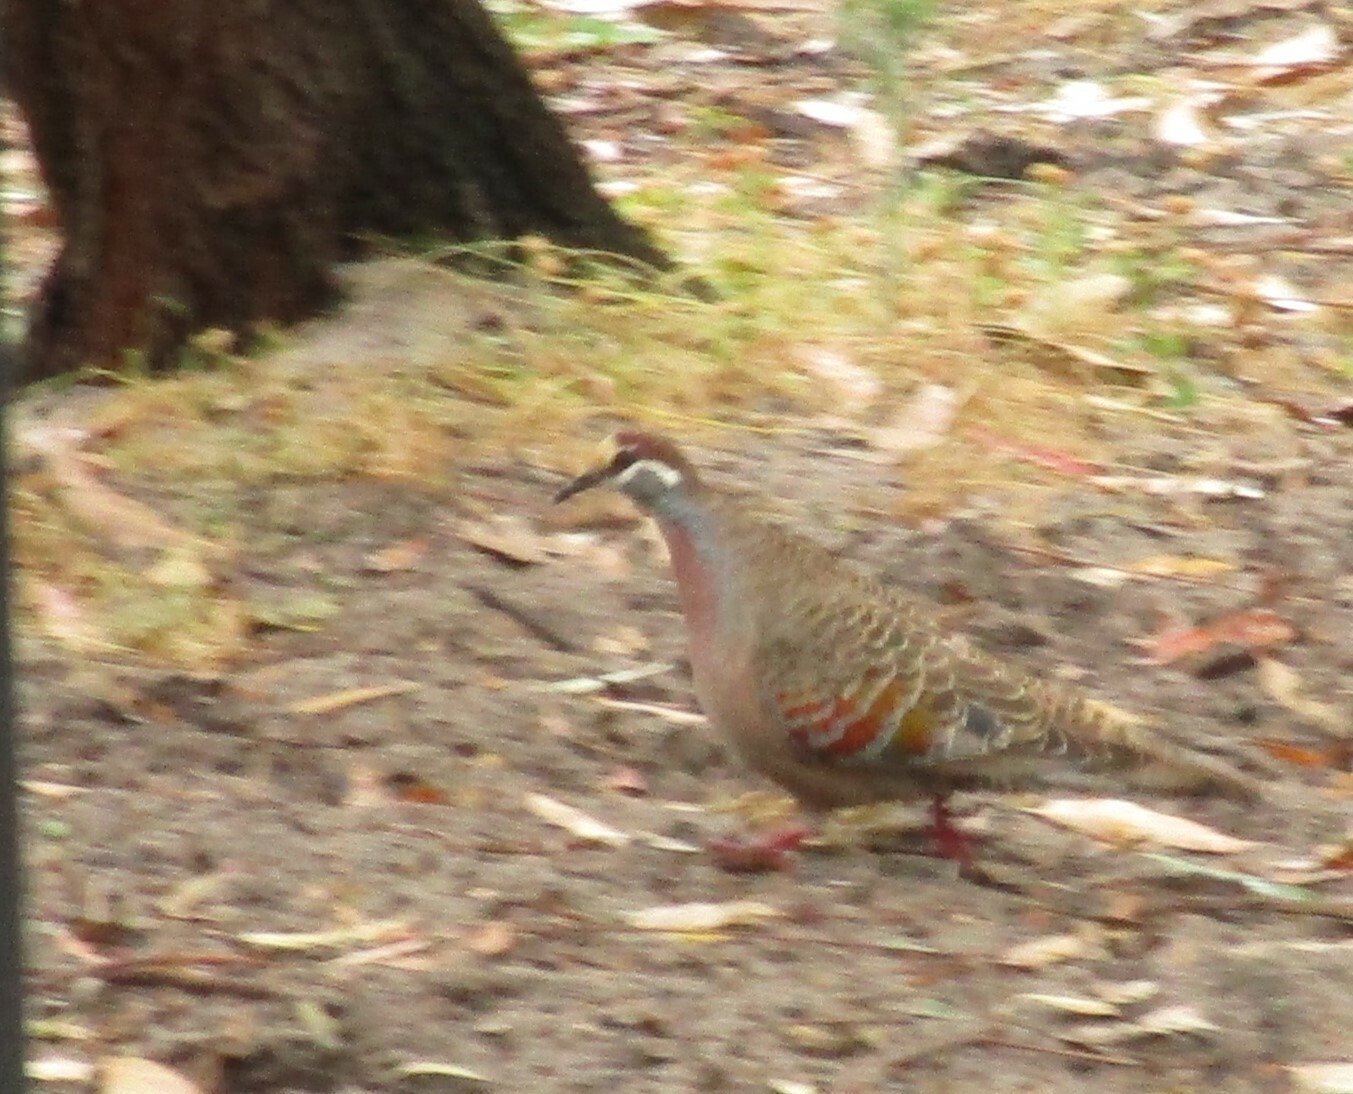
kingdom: Animalia
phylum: Chordata
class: Aves
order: Columbiformes
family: Columbidae
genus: Phaps
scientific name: Phaps chalcoptera
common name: Common bronzewing
